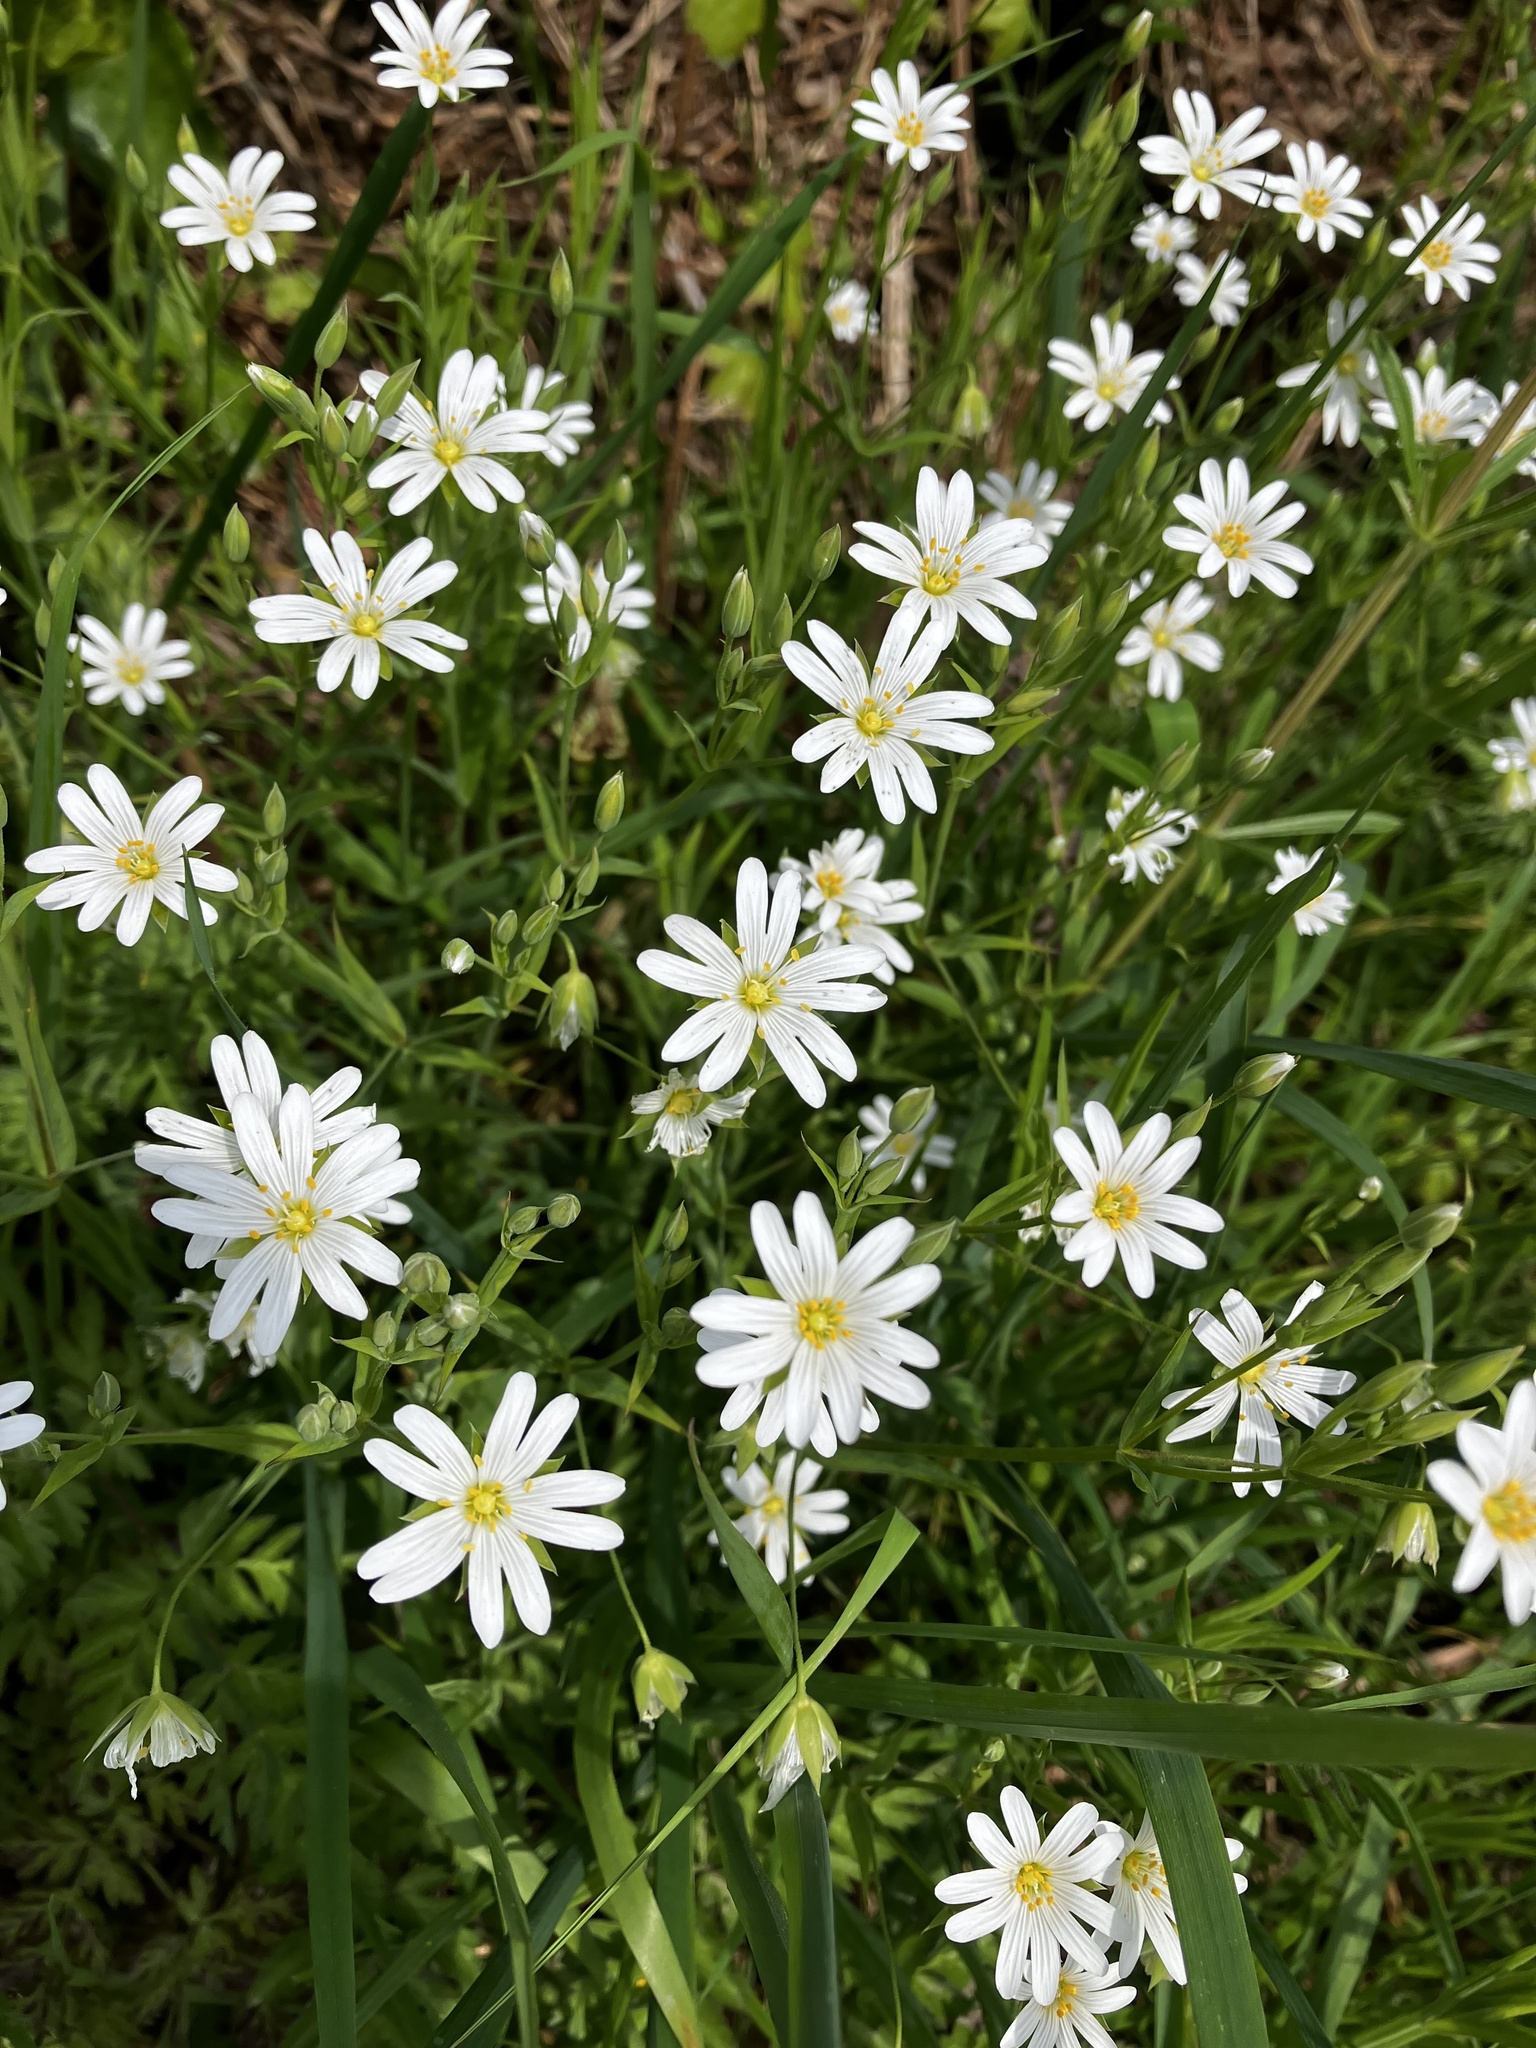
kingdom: Plantae
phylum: Tracheophyta
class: Magnoliopsida
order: Caryophyllales
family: Caryophyllaceae
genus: Rabelera
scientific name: Rabelera holostea
